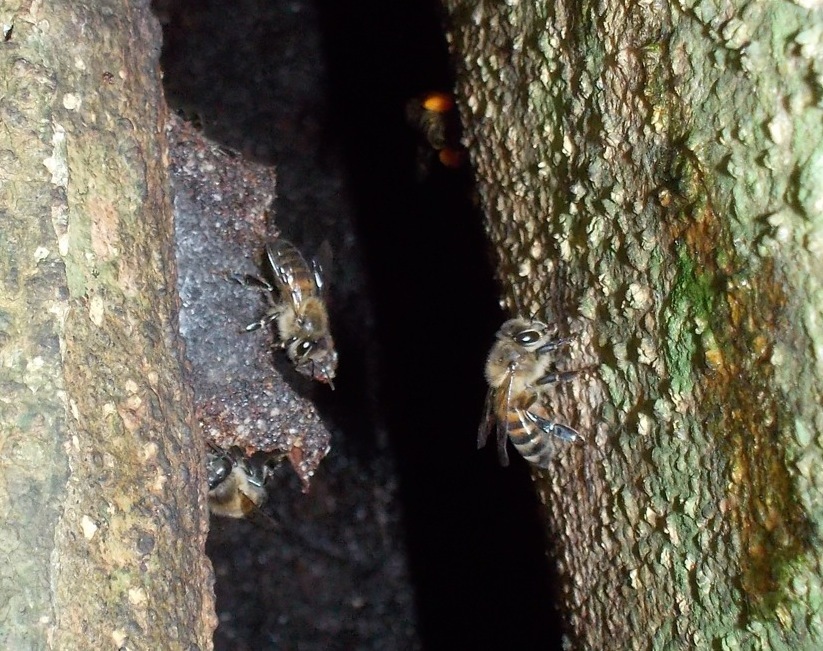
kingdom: Animalia
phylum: Arthropoda
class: Insecta
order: Hymenoptera
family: Apidae
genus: Apis
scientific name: Apis mellifera
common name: Honey bee
